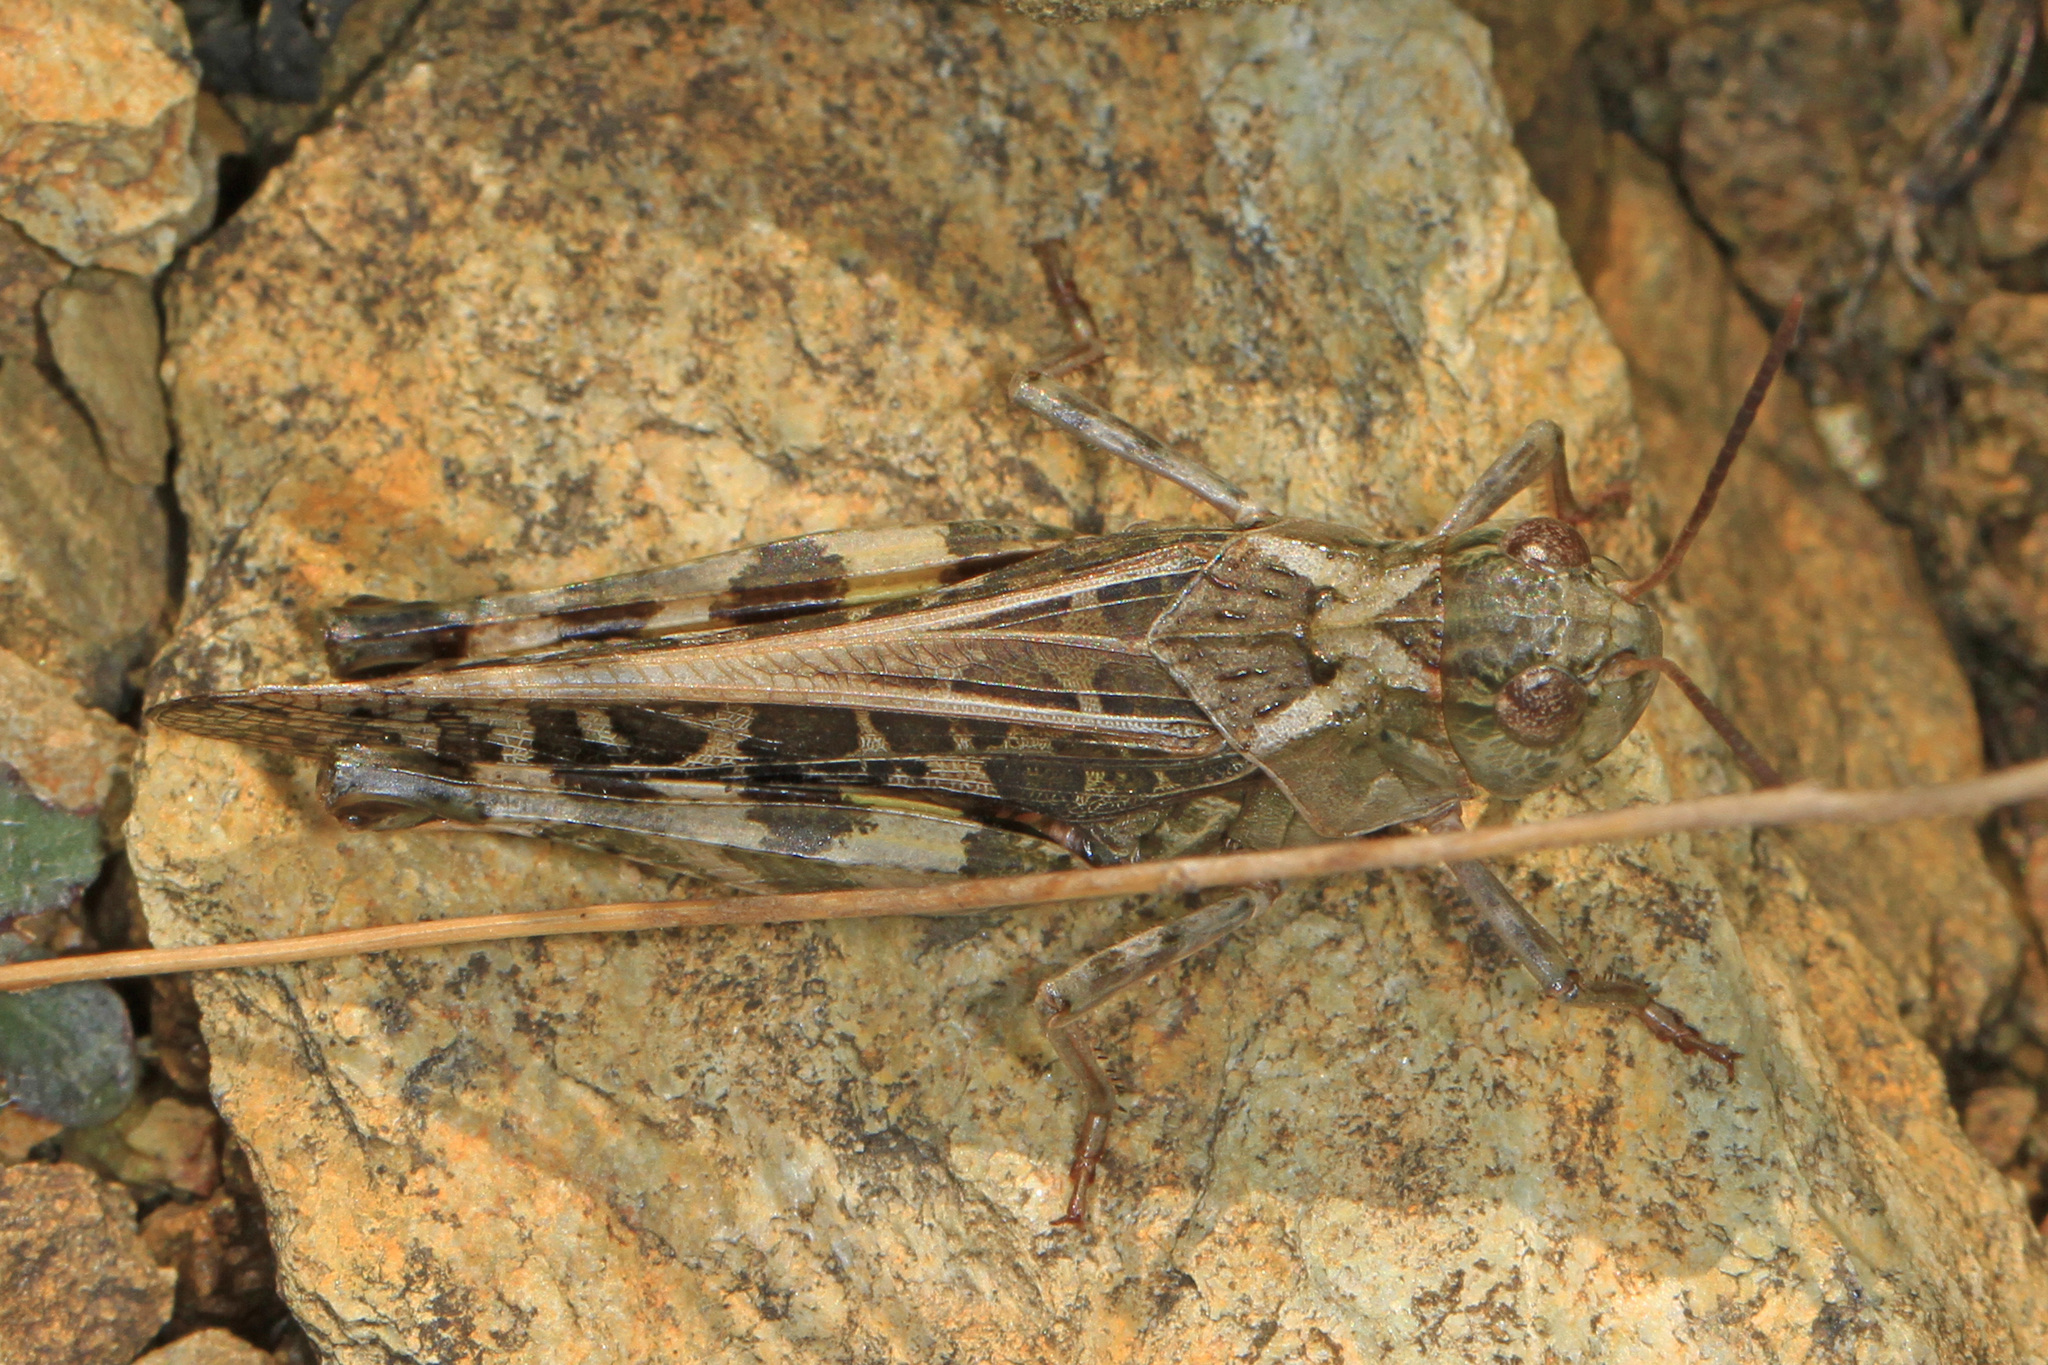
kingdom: Animalia
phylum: Arthropoda
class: Insecta
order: Orthoptera
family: Acrididae
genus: Hippiscus
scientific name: Hippiscus ocelote
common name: Wrinkled grasshopper
